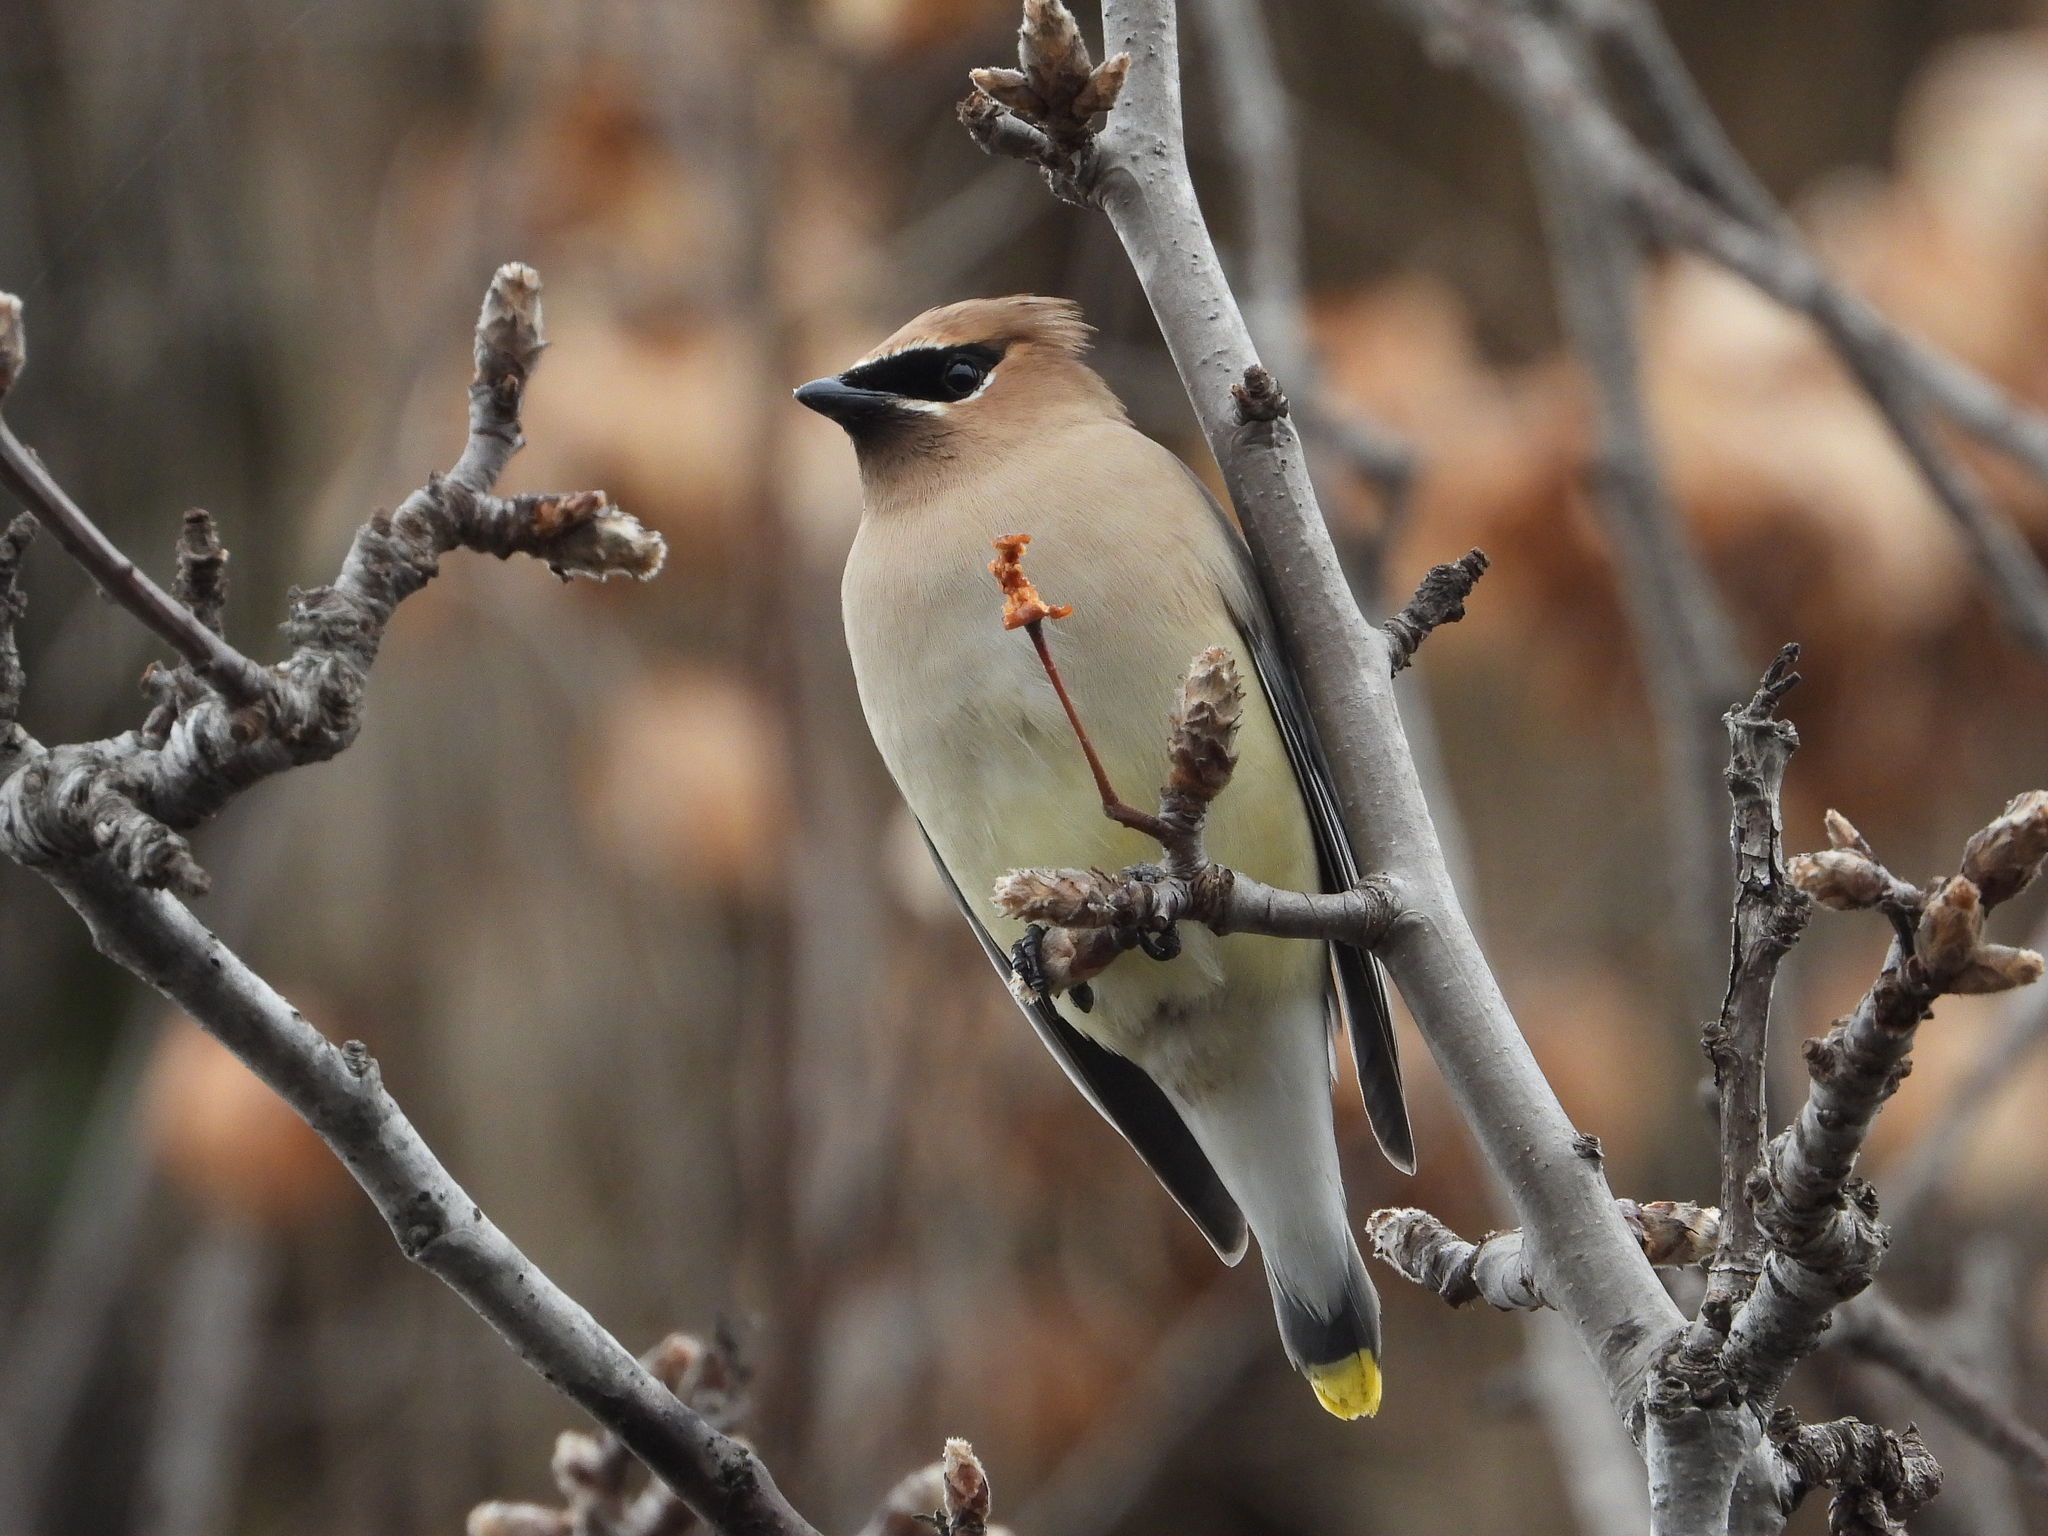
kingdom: Animalia
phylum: Chordata
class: Aves
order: Passeriformes
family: Bombycillidae
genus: Bombycilla
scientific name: Bombycilla cedrorum
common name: Cedar waxwing
